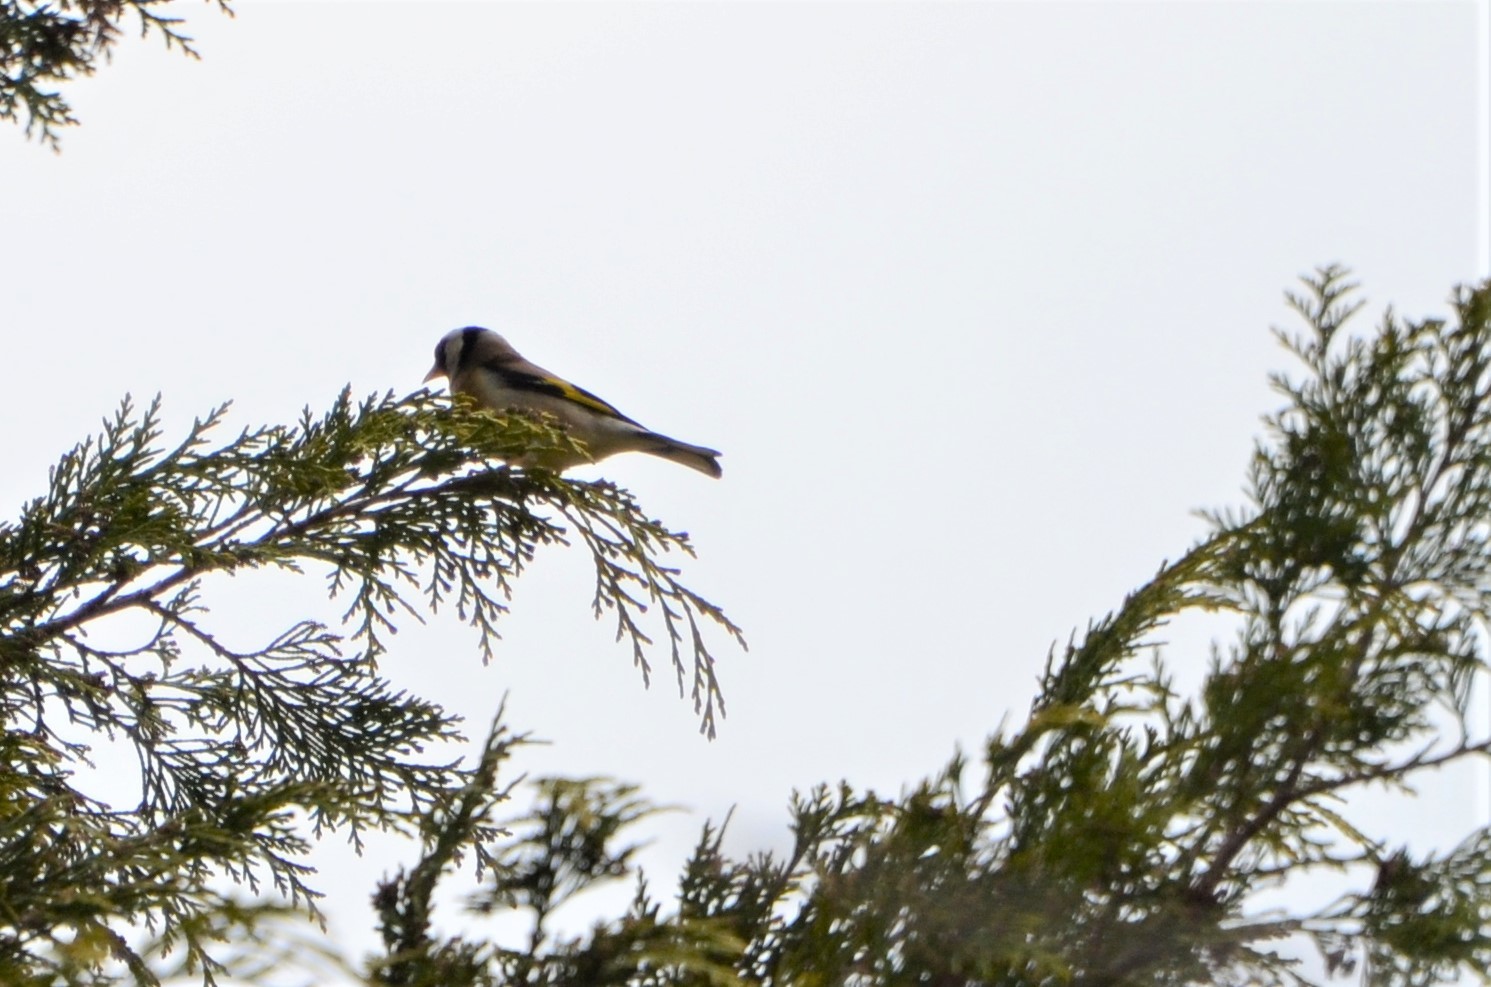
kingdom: Animalia
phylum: Chordata
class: Aves
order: Passeriformes
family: Fringillidae
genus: Carduelis
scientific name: Carduelis carduelis
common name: European goldfinch
